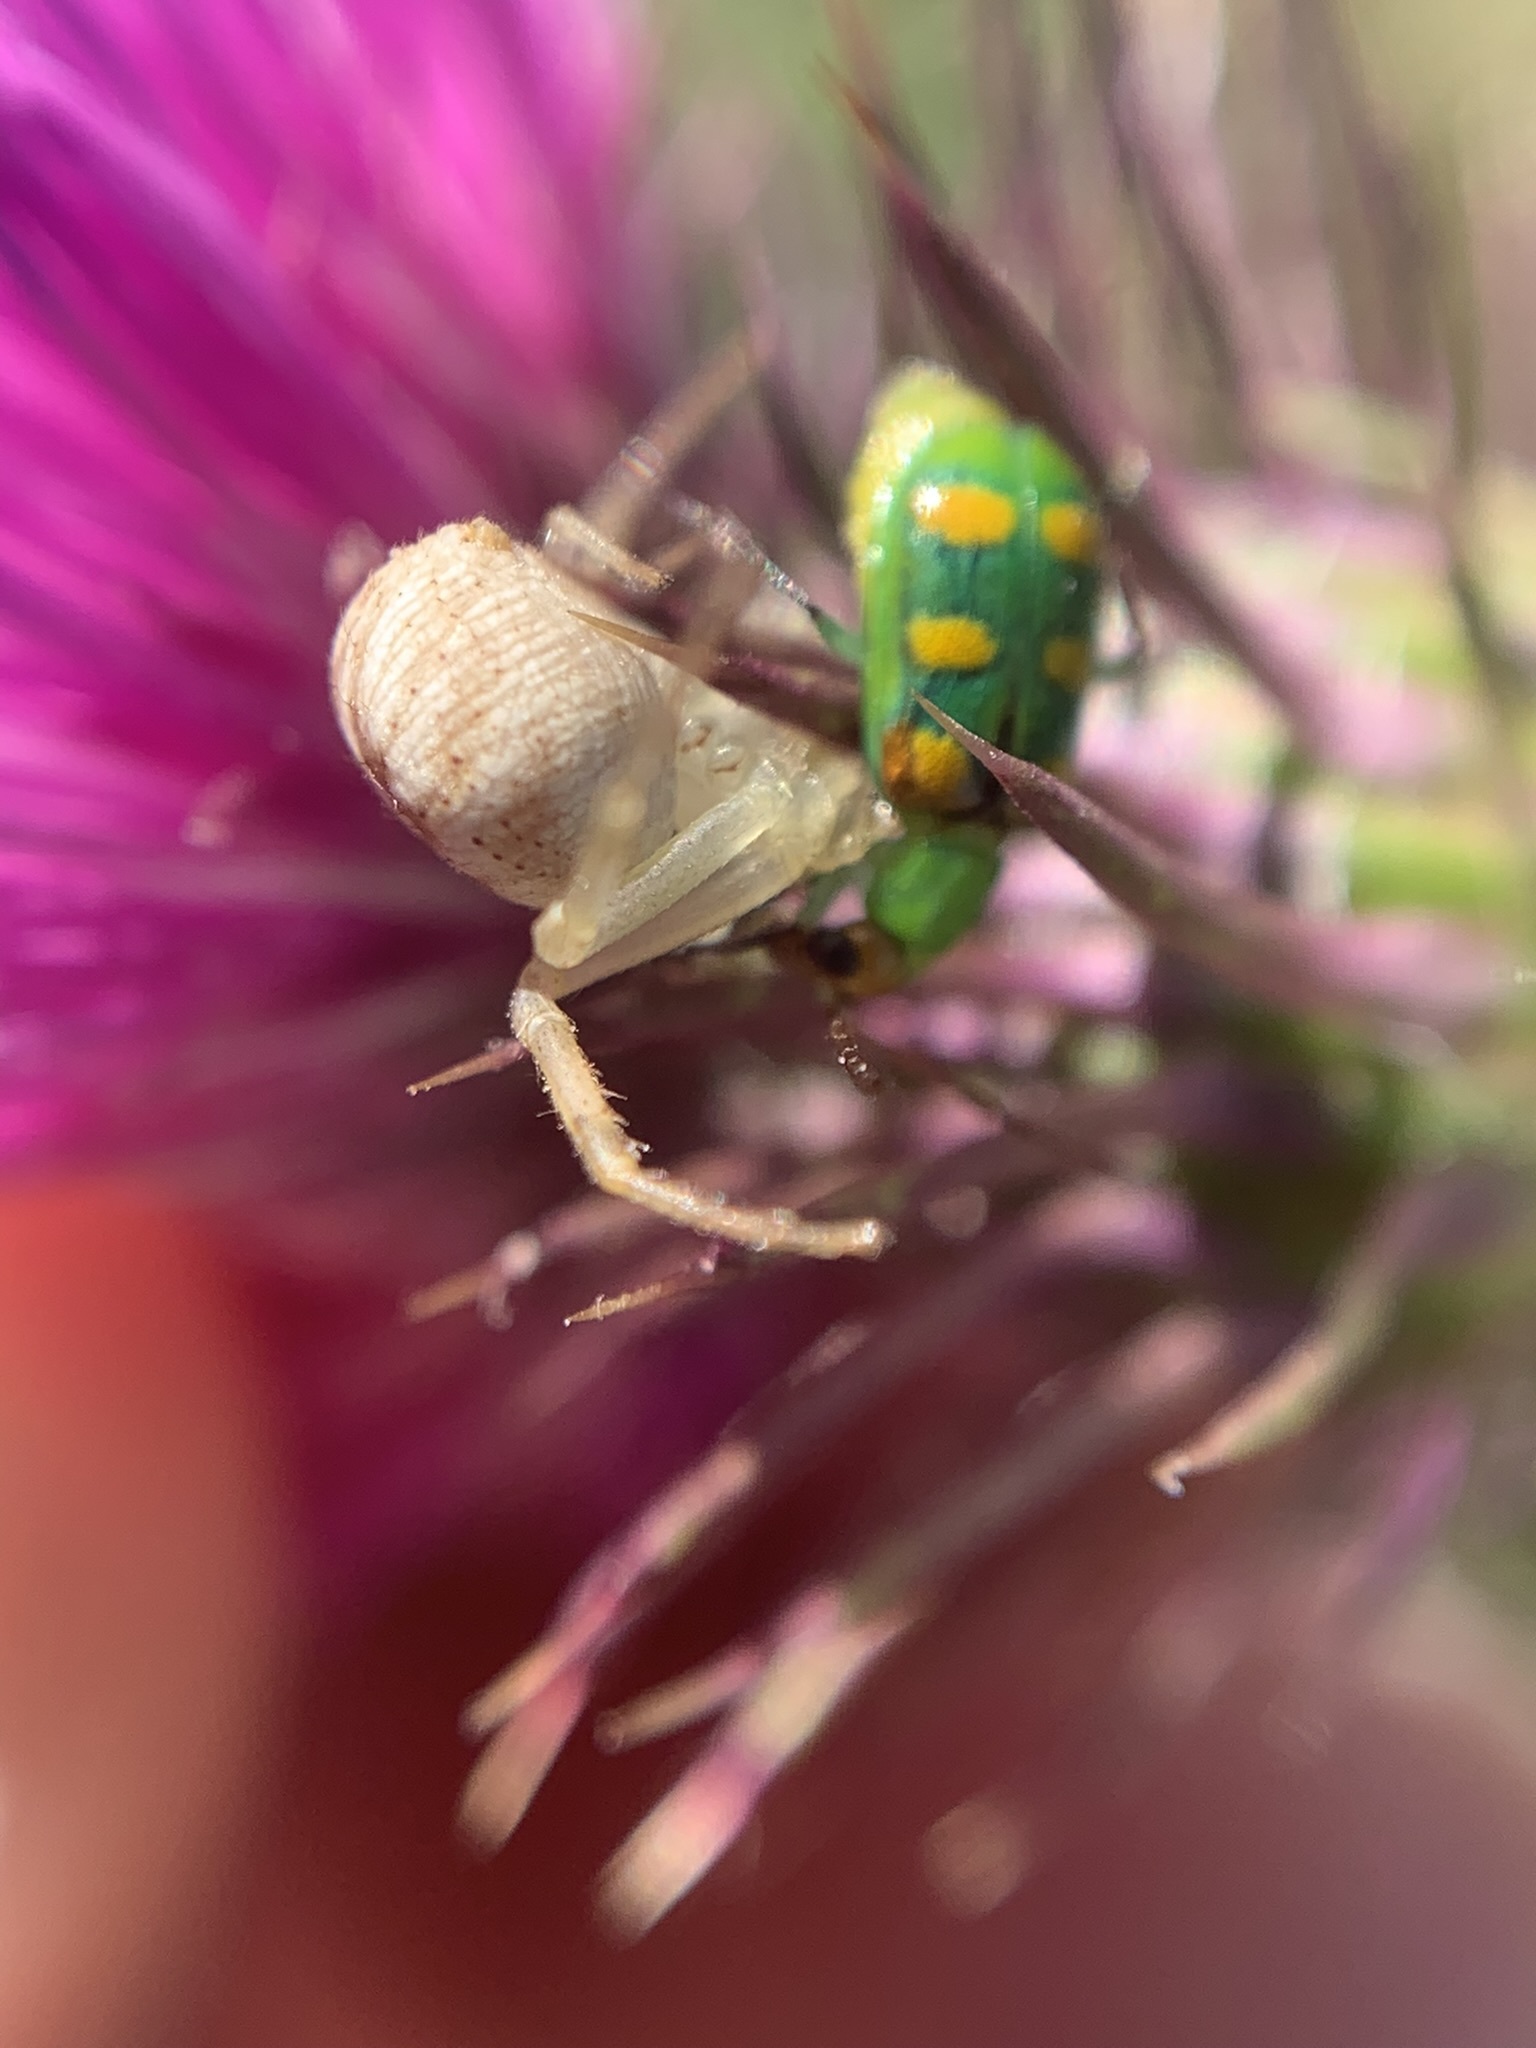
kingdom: Animalia
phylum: Arthropoda
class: Arachnida
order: Araneae
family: Thomisidae
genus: Misumenops
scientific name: Misumenops
